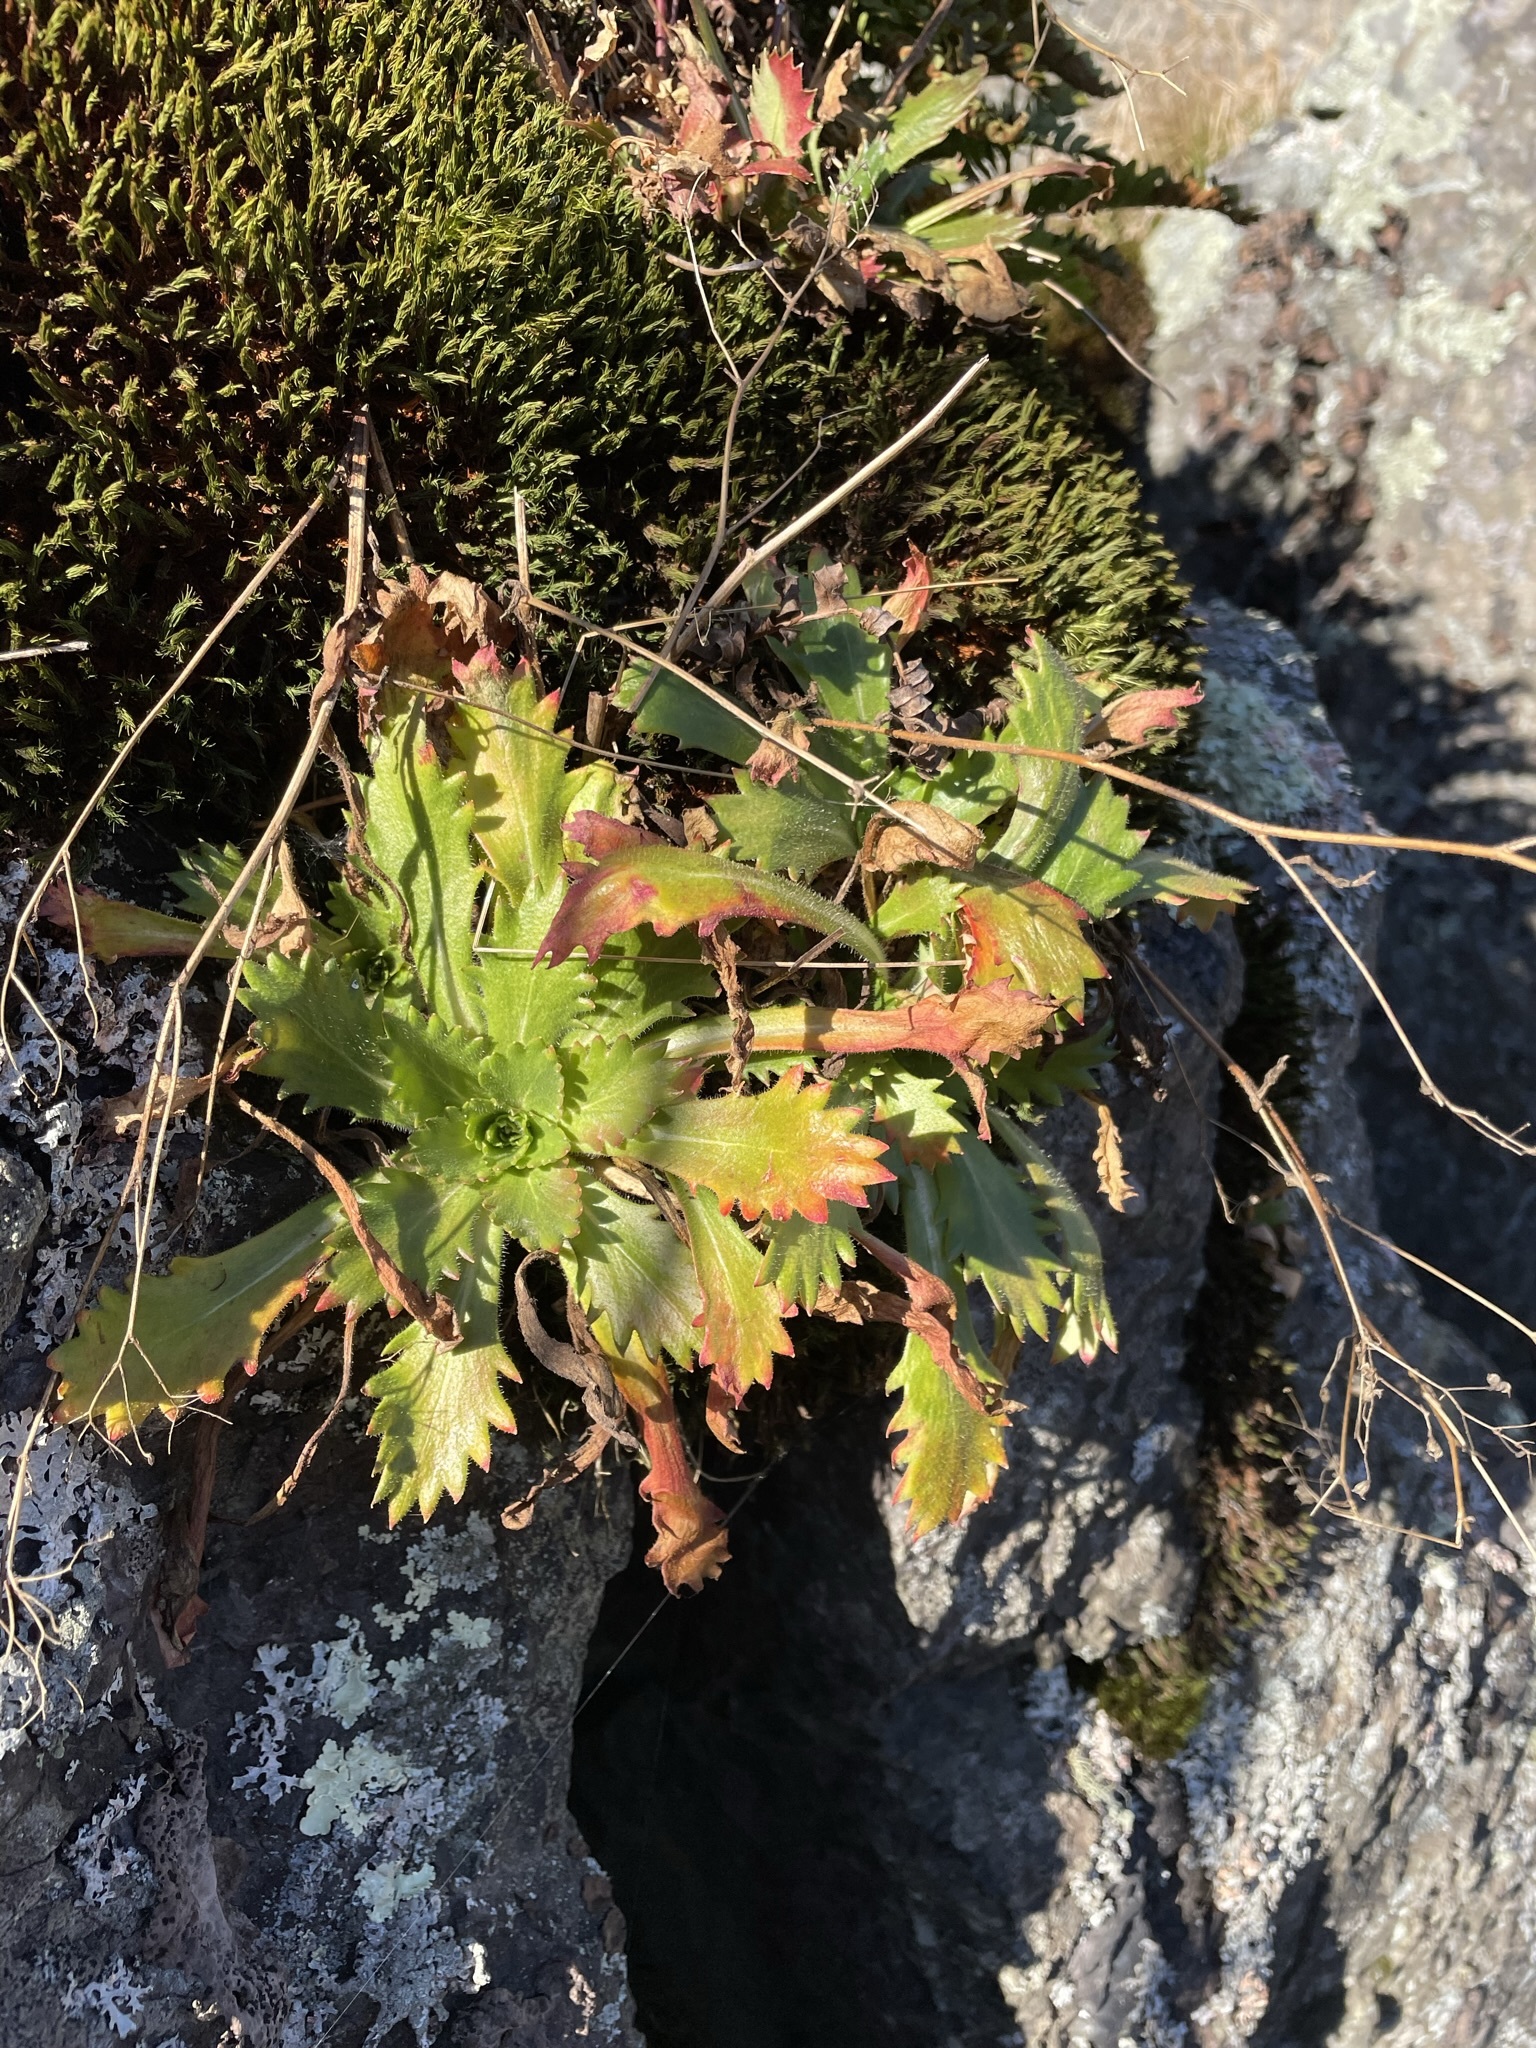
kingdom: Plantae
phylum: Tracheophyta
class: Magnoliopsida
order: Saxifragales
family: Saxifragaceae
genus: Micranthes
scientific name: Micranthes petiolaris
